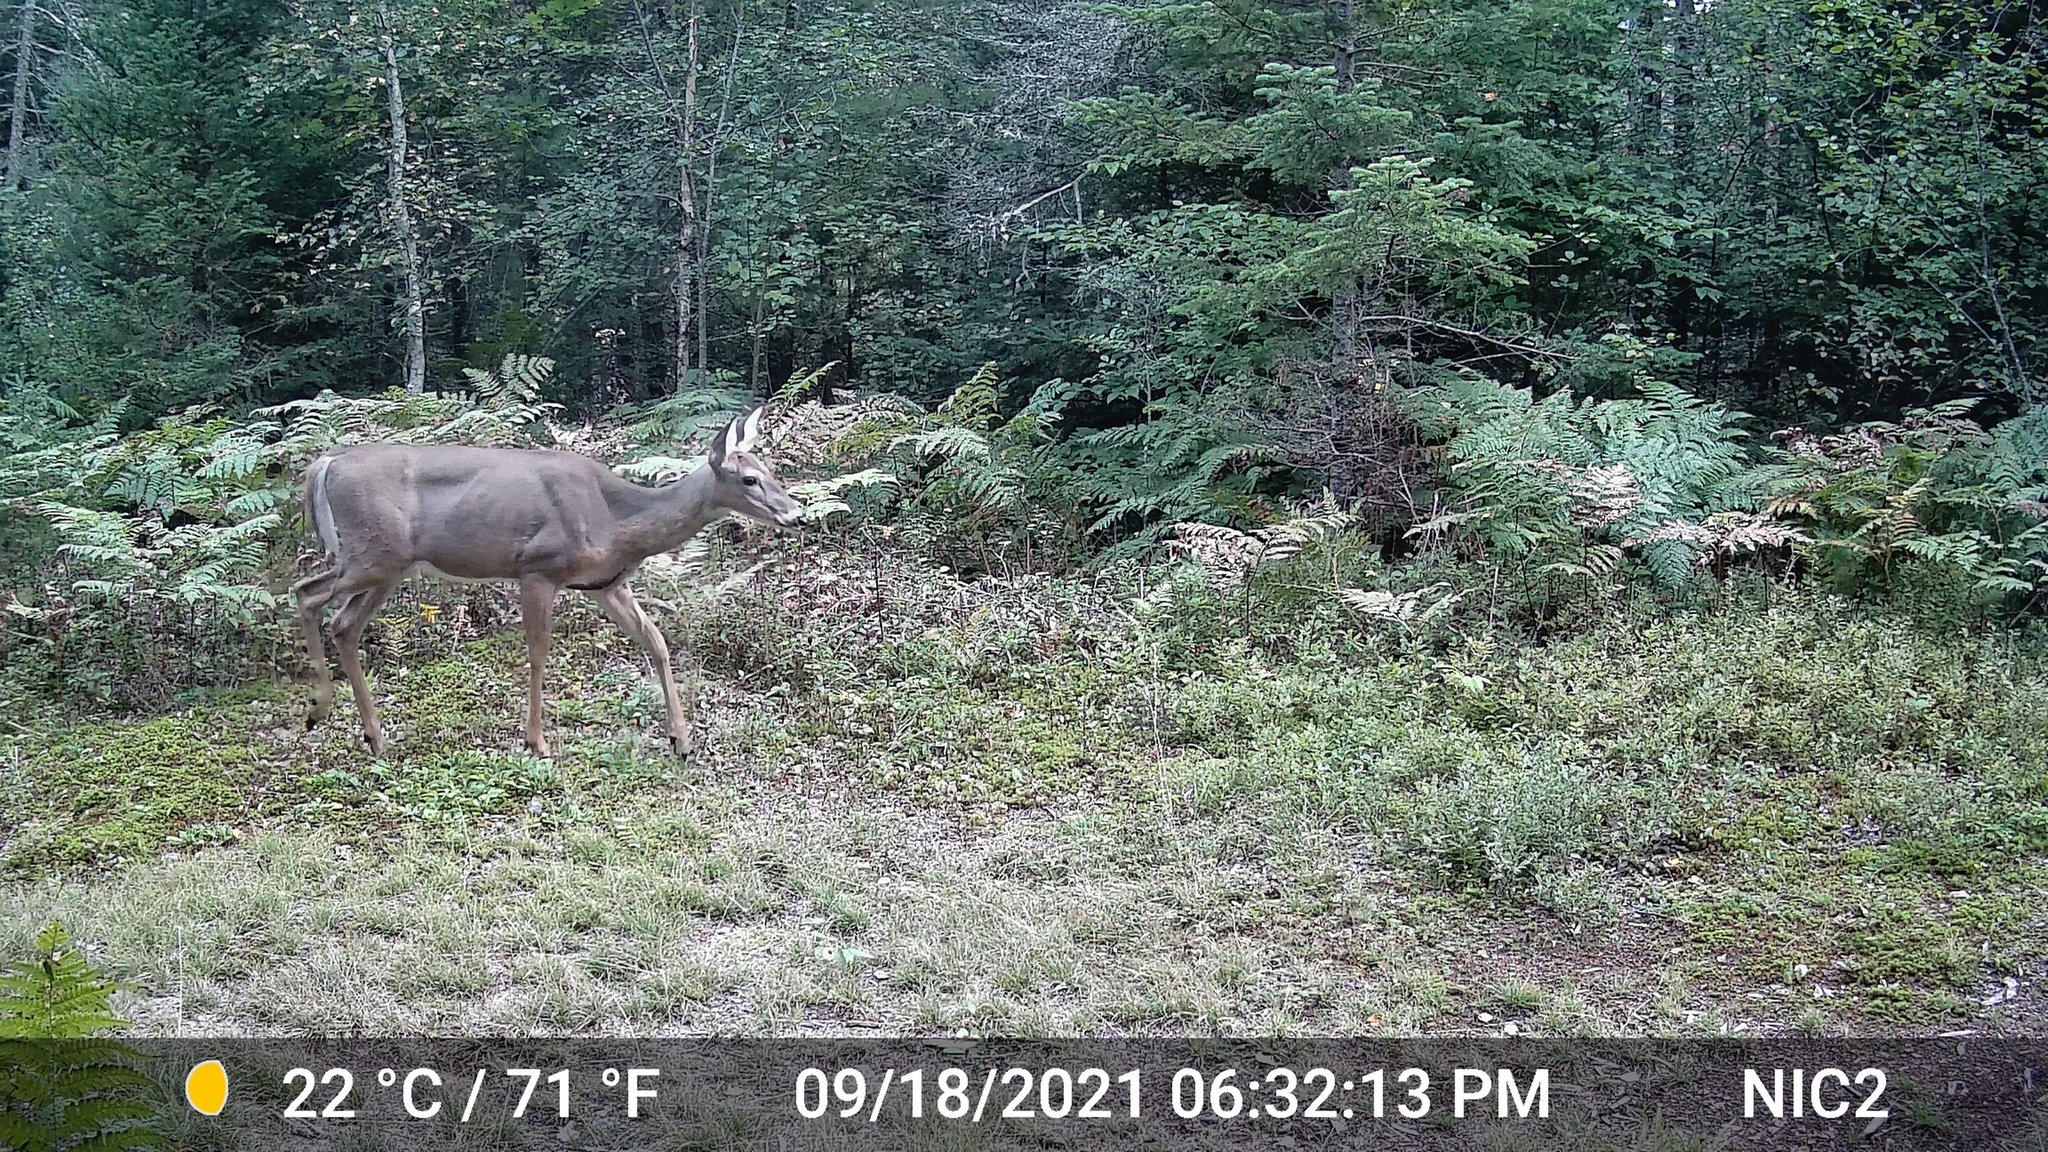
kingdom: Animalia
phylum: Chordata
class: Mammalia
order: Artiodactyla
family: Cervidae
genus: Odocoileus
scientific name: Odocoileus virginianus
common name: White-tailed deer
